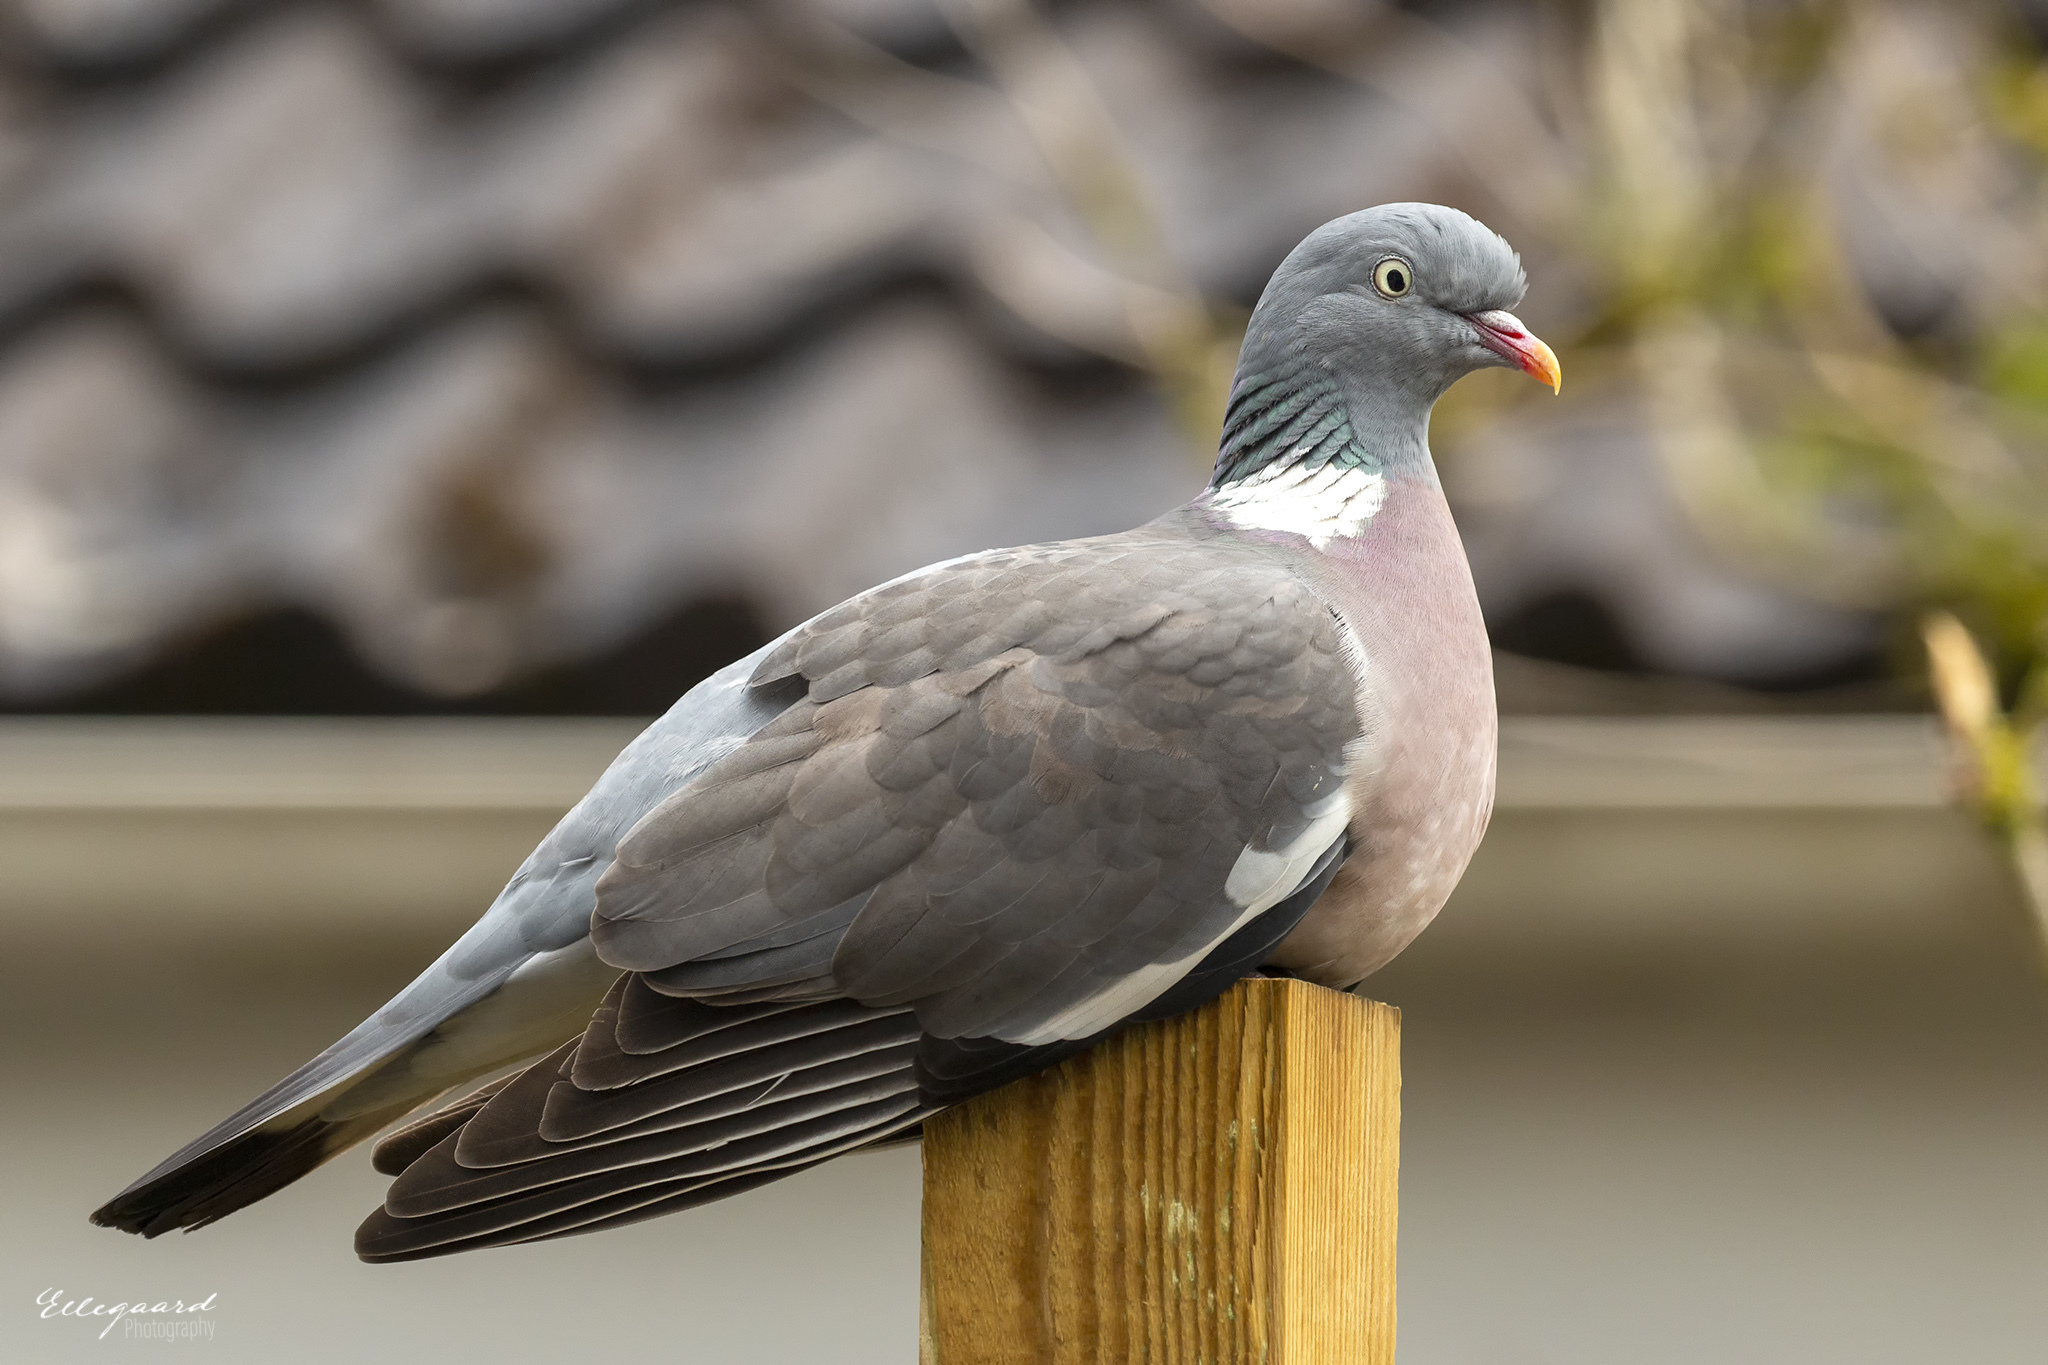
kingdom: Animalia
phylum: Chordata
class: Aves
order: Columbiformes
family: Columbidae
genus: Columba
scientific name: Columba palumbus
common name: Common wood pigeon
